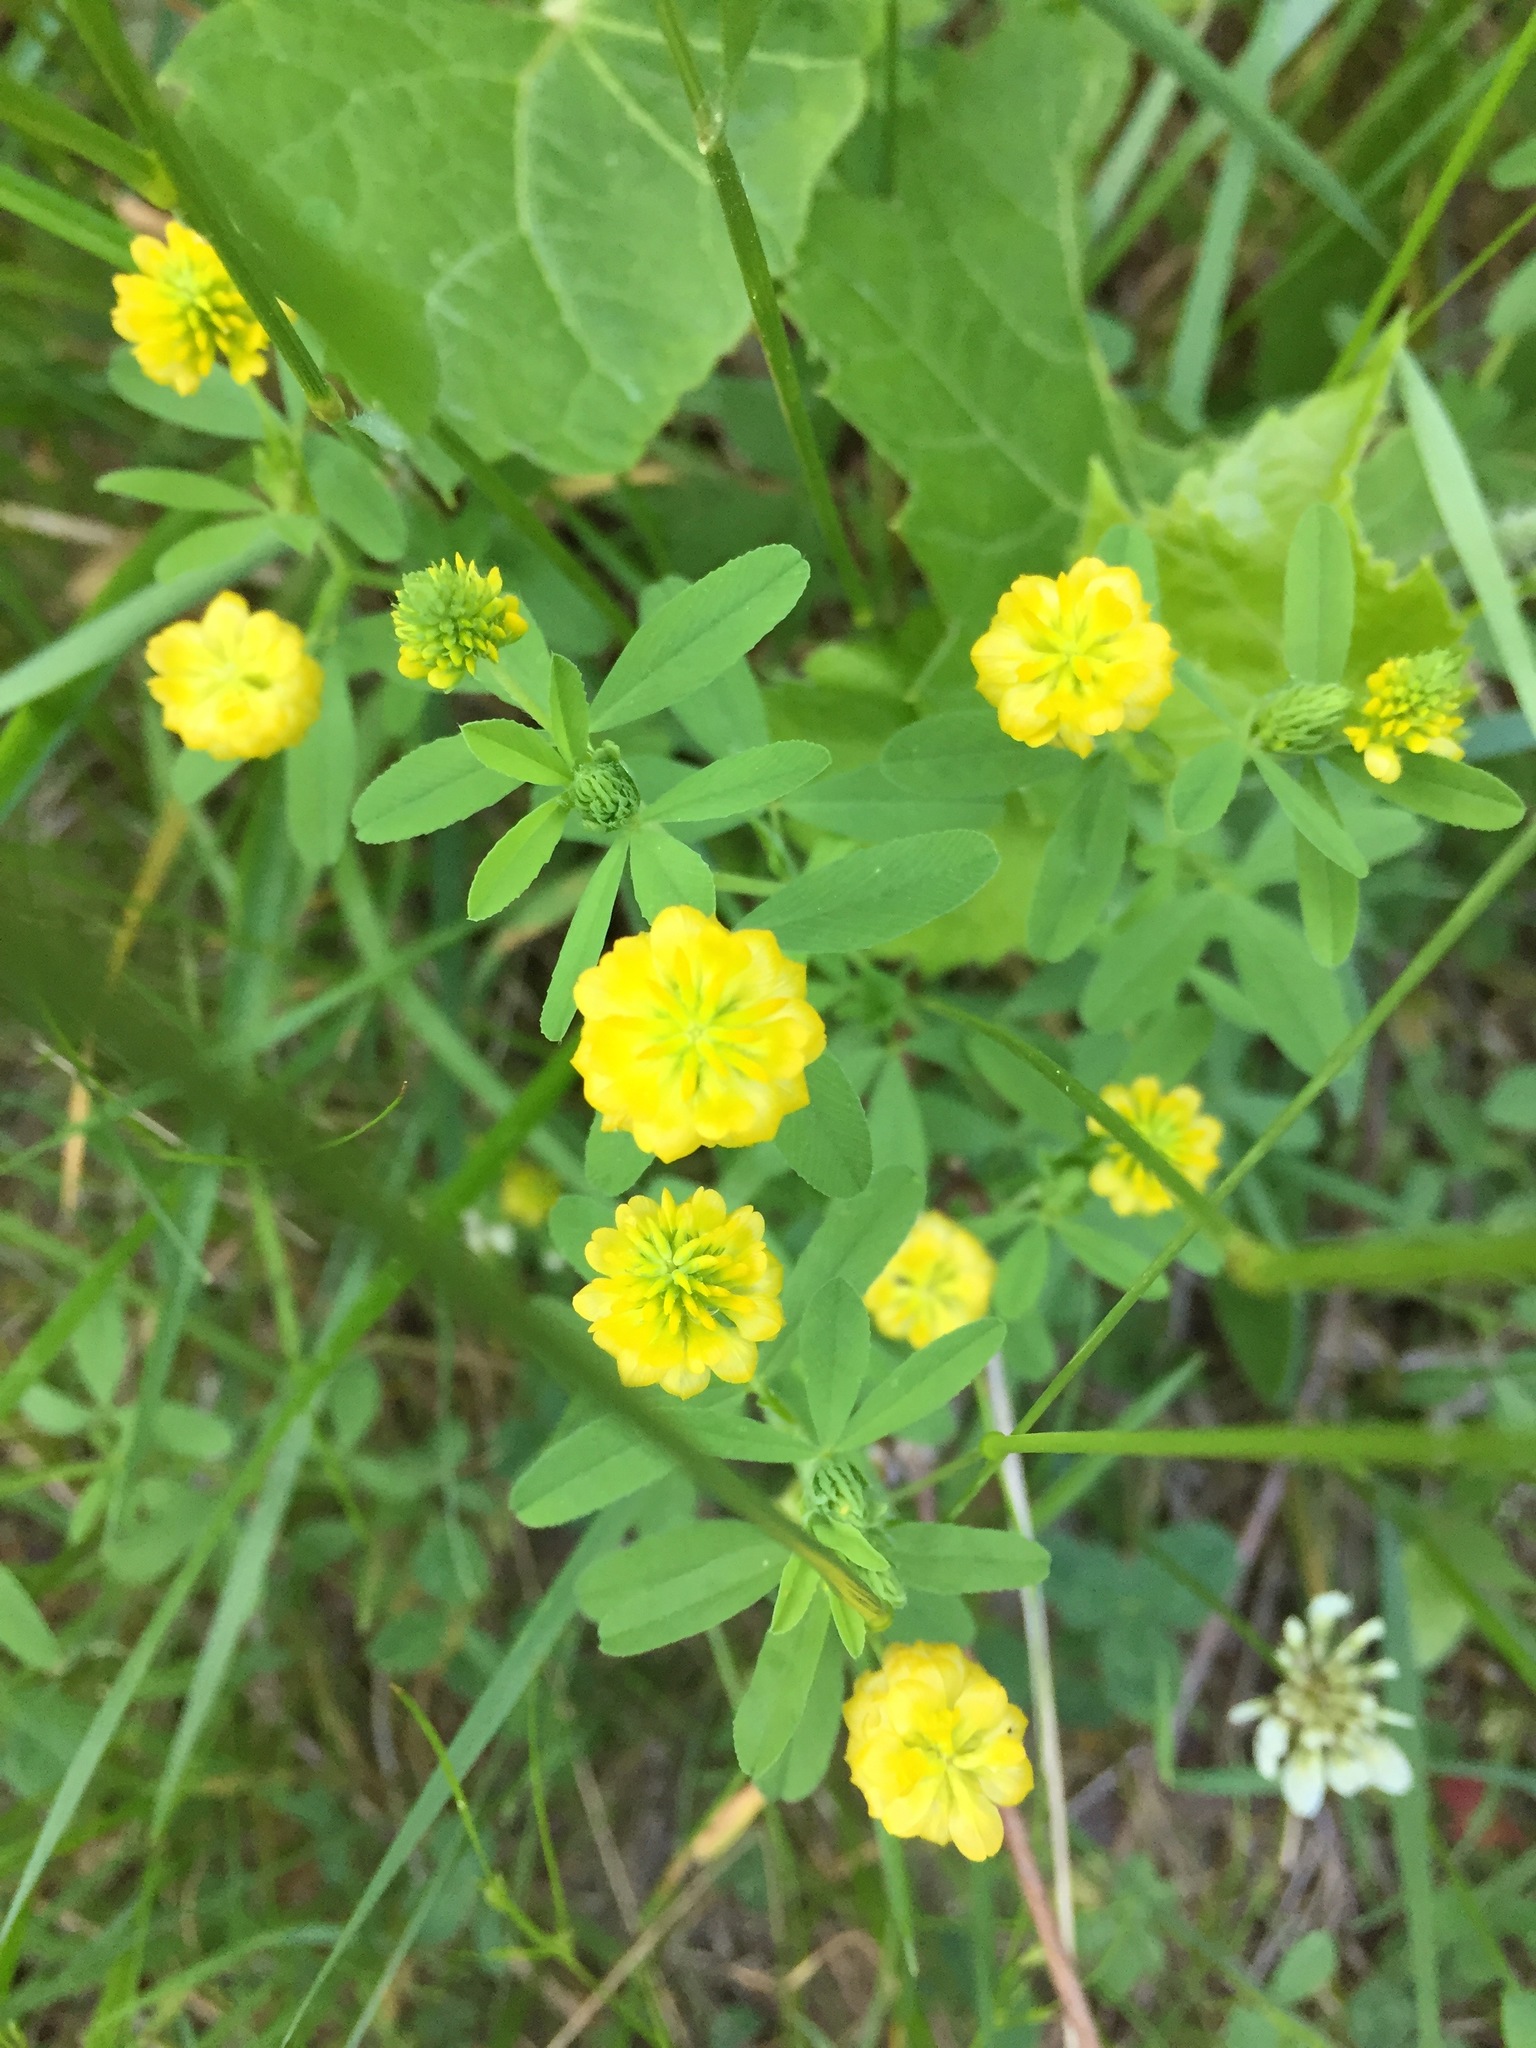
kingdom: Plantae
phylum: Tracheophyta
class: Magnoliopsida
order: Fabales
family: Fabaceae
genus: Trifolium
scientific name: Trifolium aureum
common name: Golden clover
